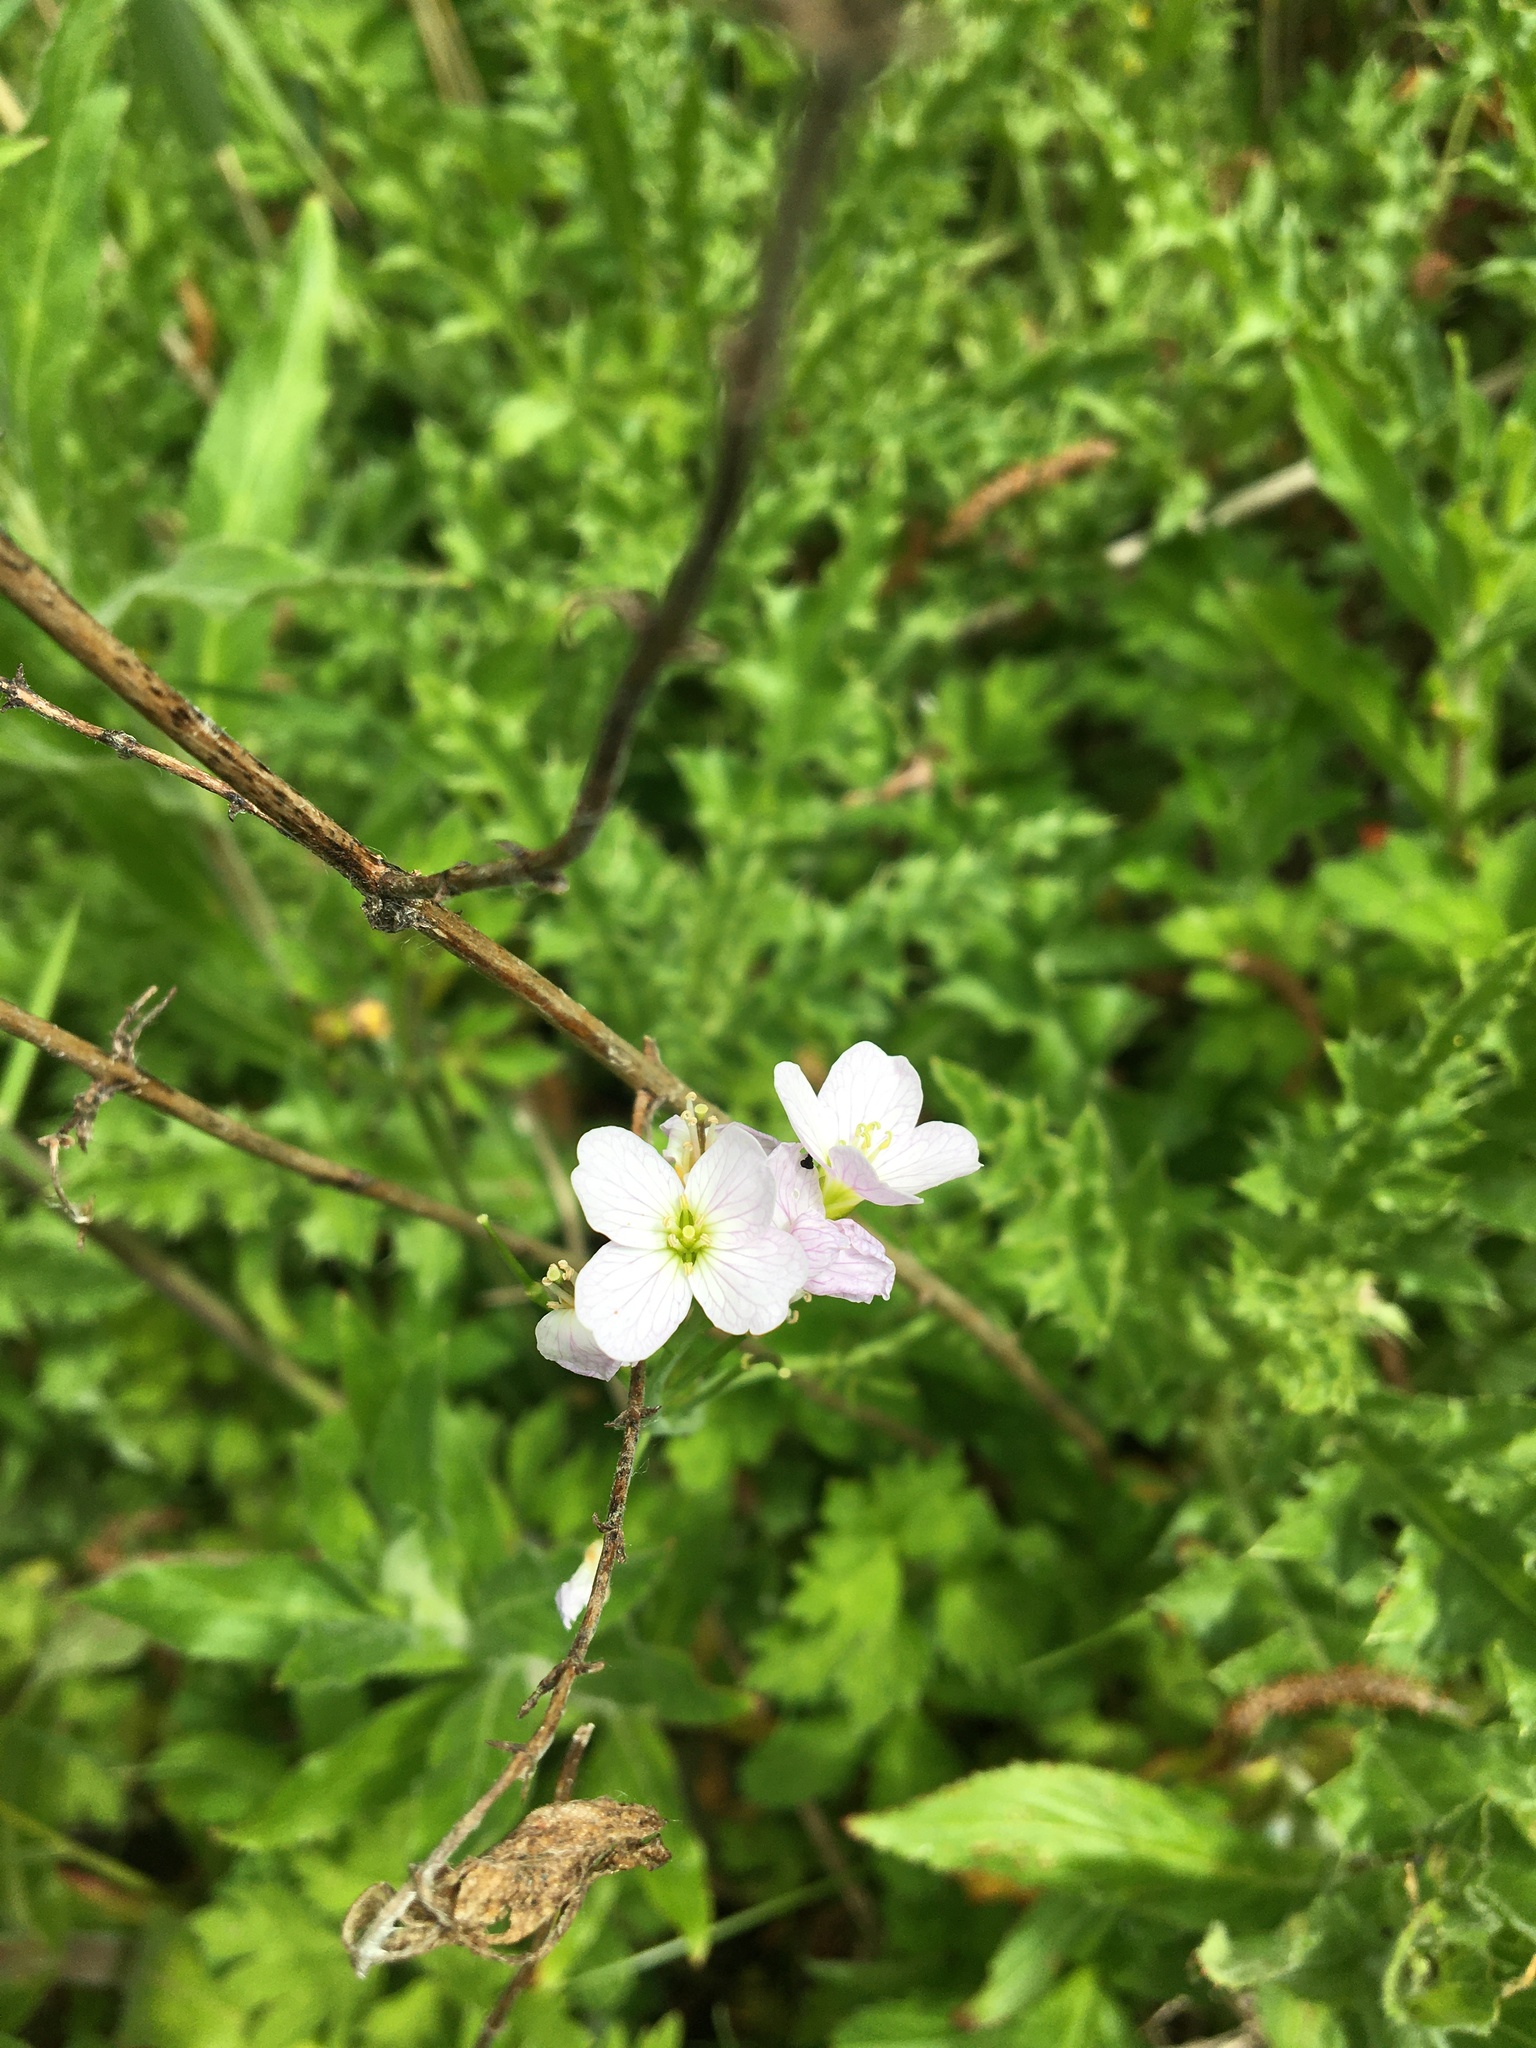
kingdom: Plantae
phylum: Tracheophyta
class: Magnoliopsida
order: Brassicales
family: Brassicaceae
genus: Cardamine
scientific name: Cardamine pratensis
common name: Cuckoo flower
